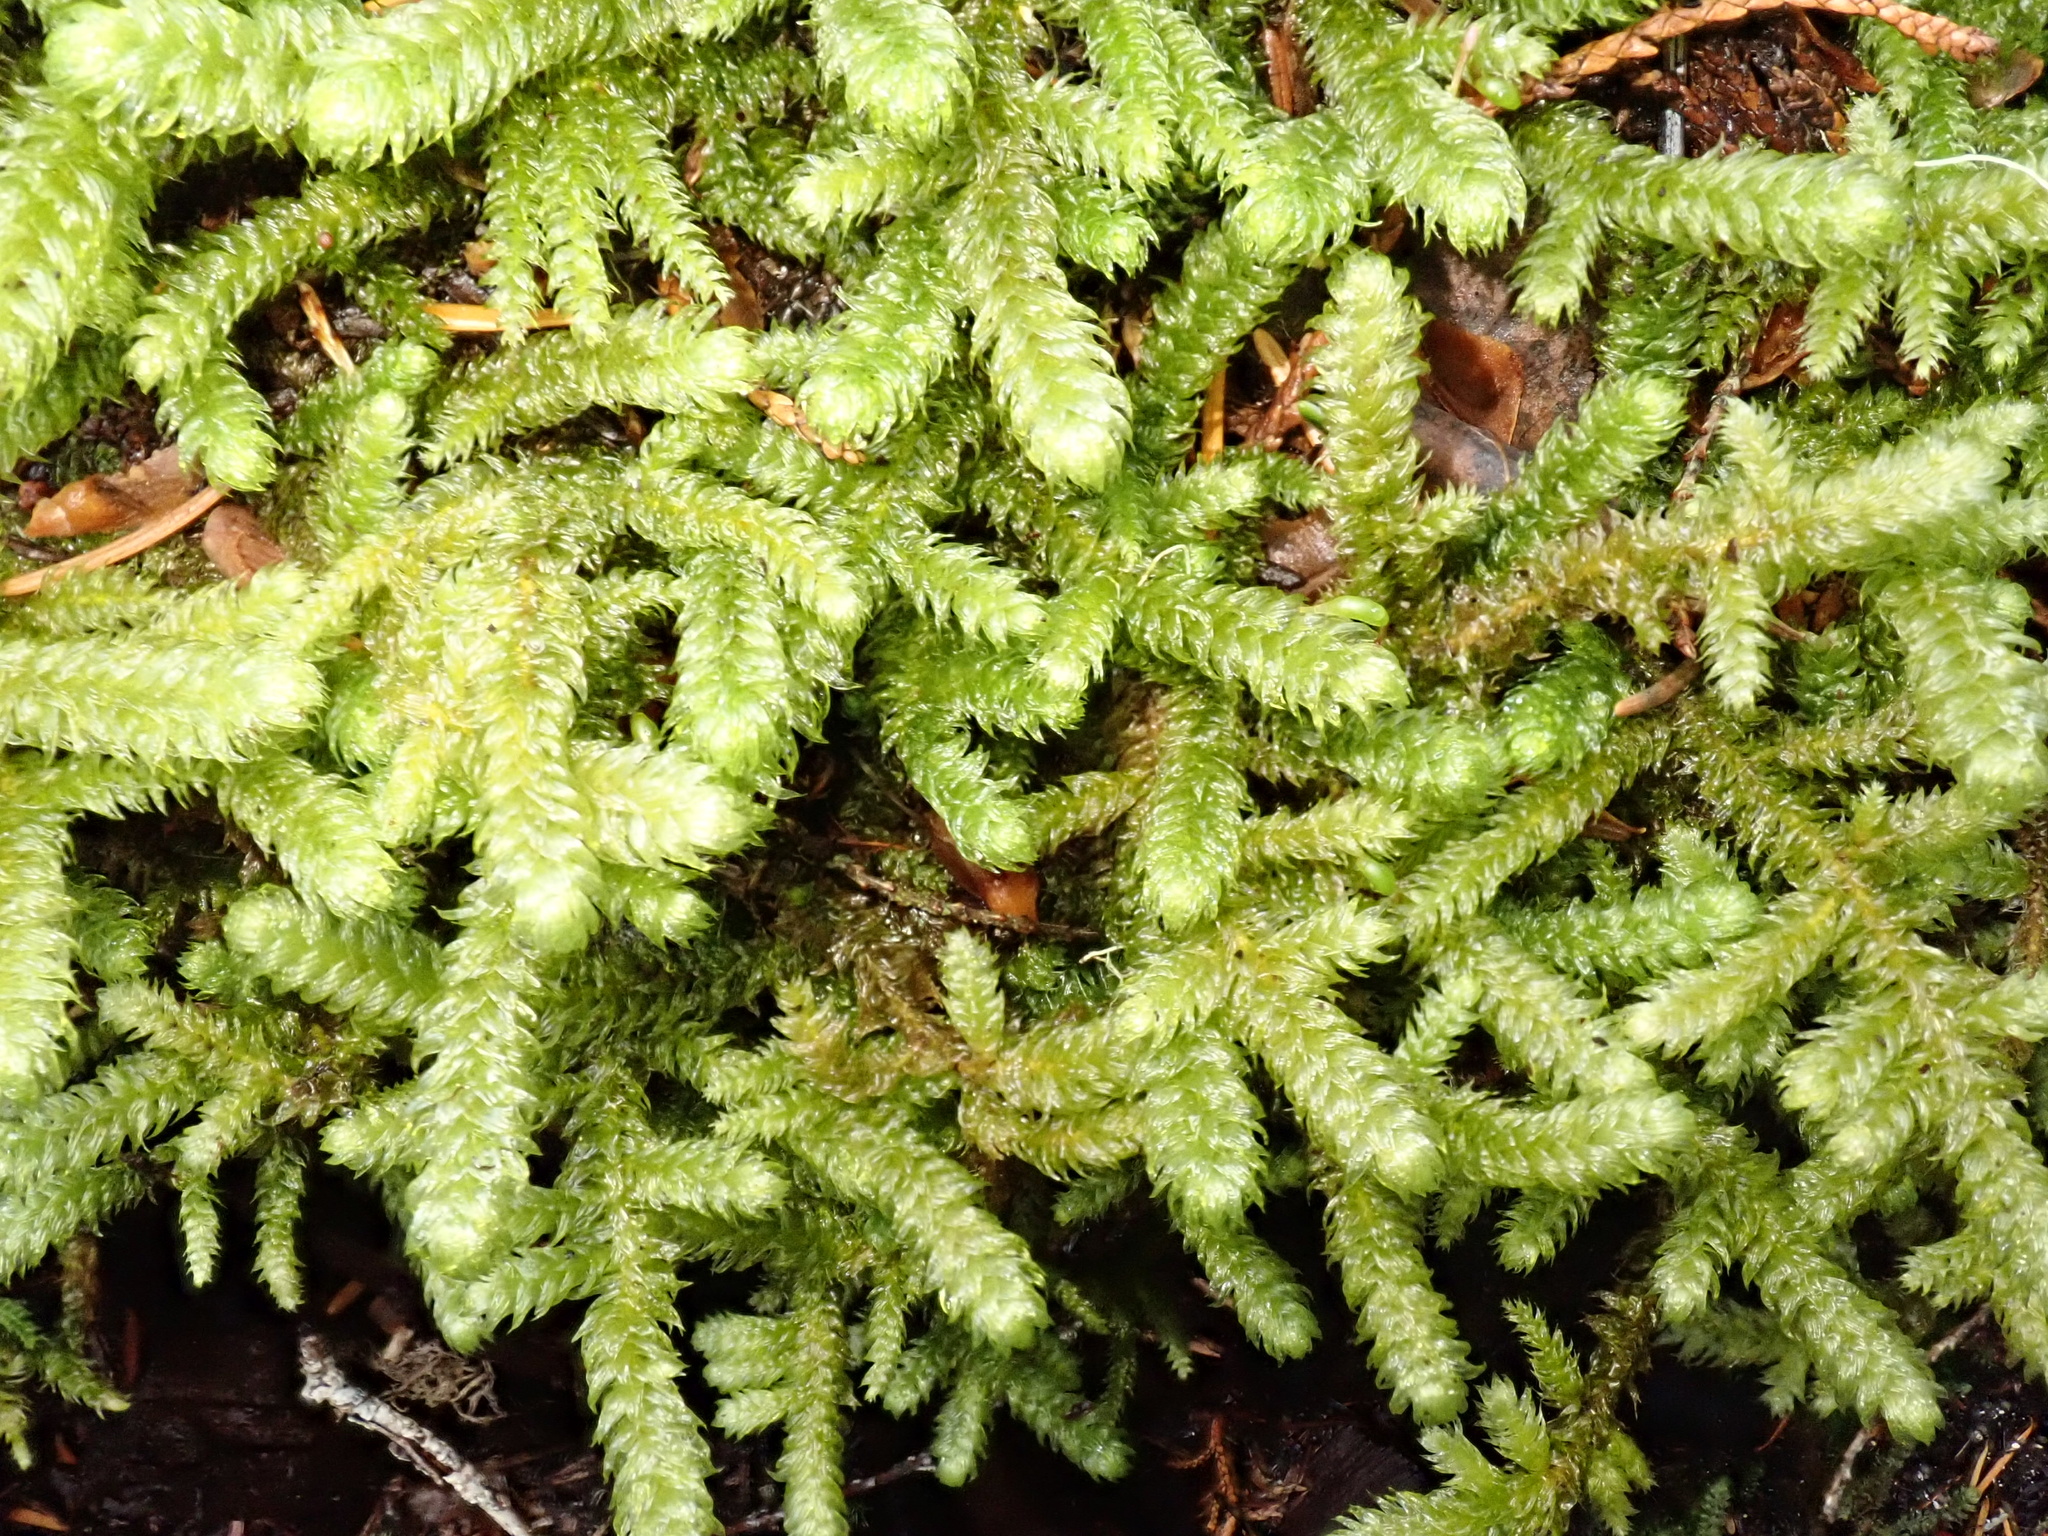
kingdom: Plantae
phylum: Bryophyta
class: Bryopsida
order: Hypnales
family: Hylocomiaceae
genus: Rhytidiopsis
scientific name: Rhytidiopsis robusta
